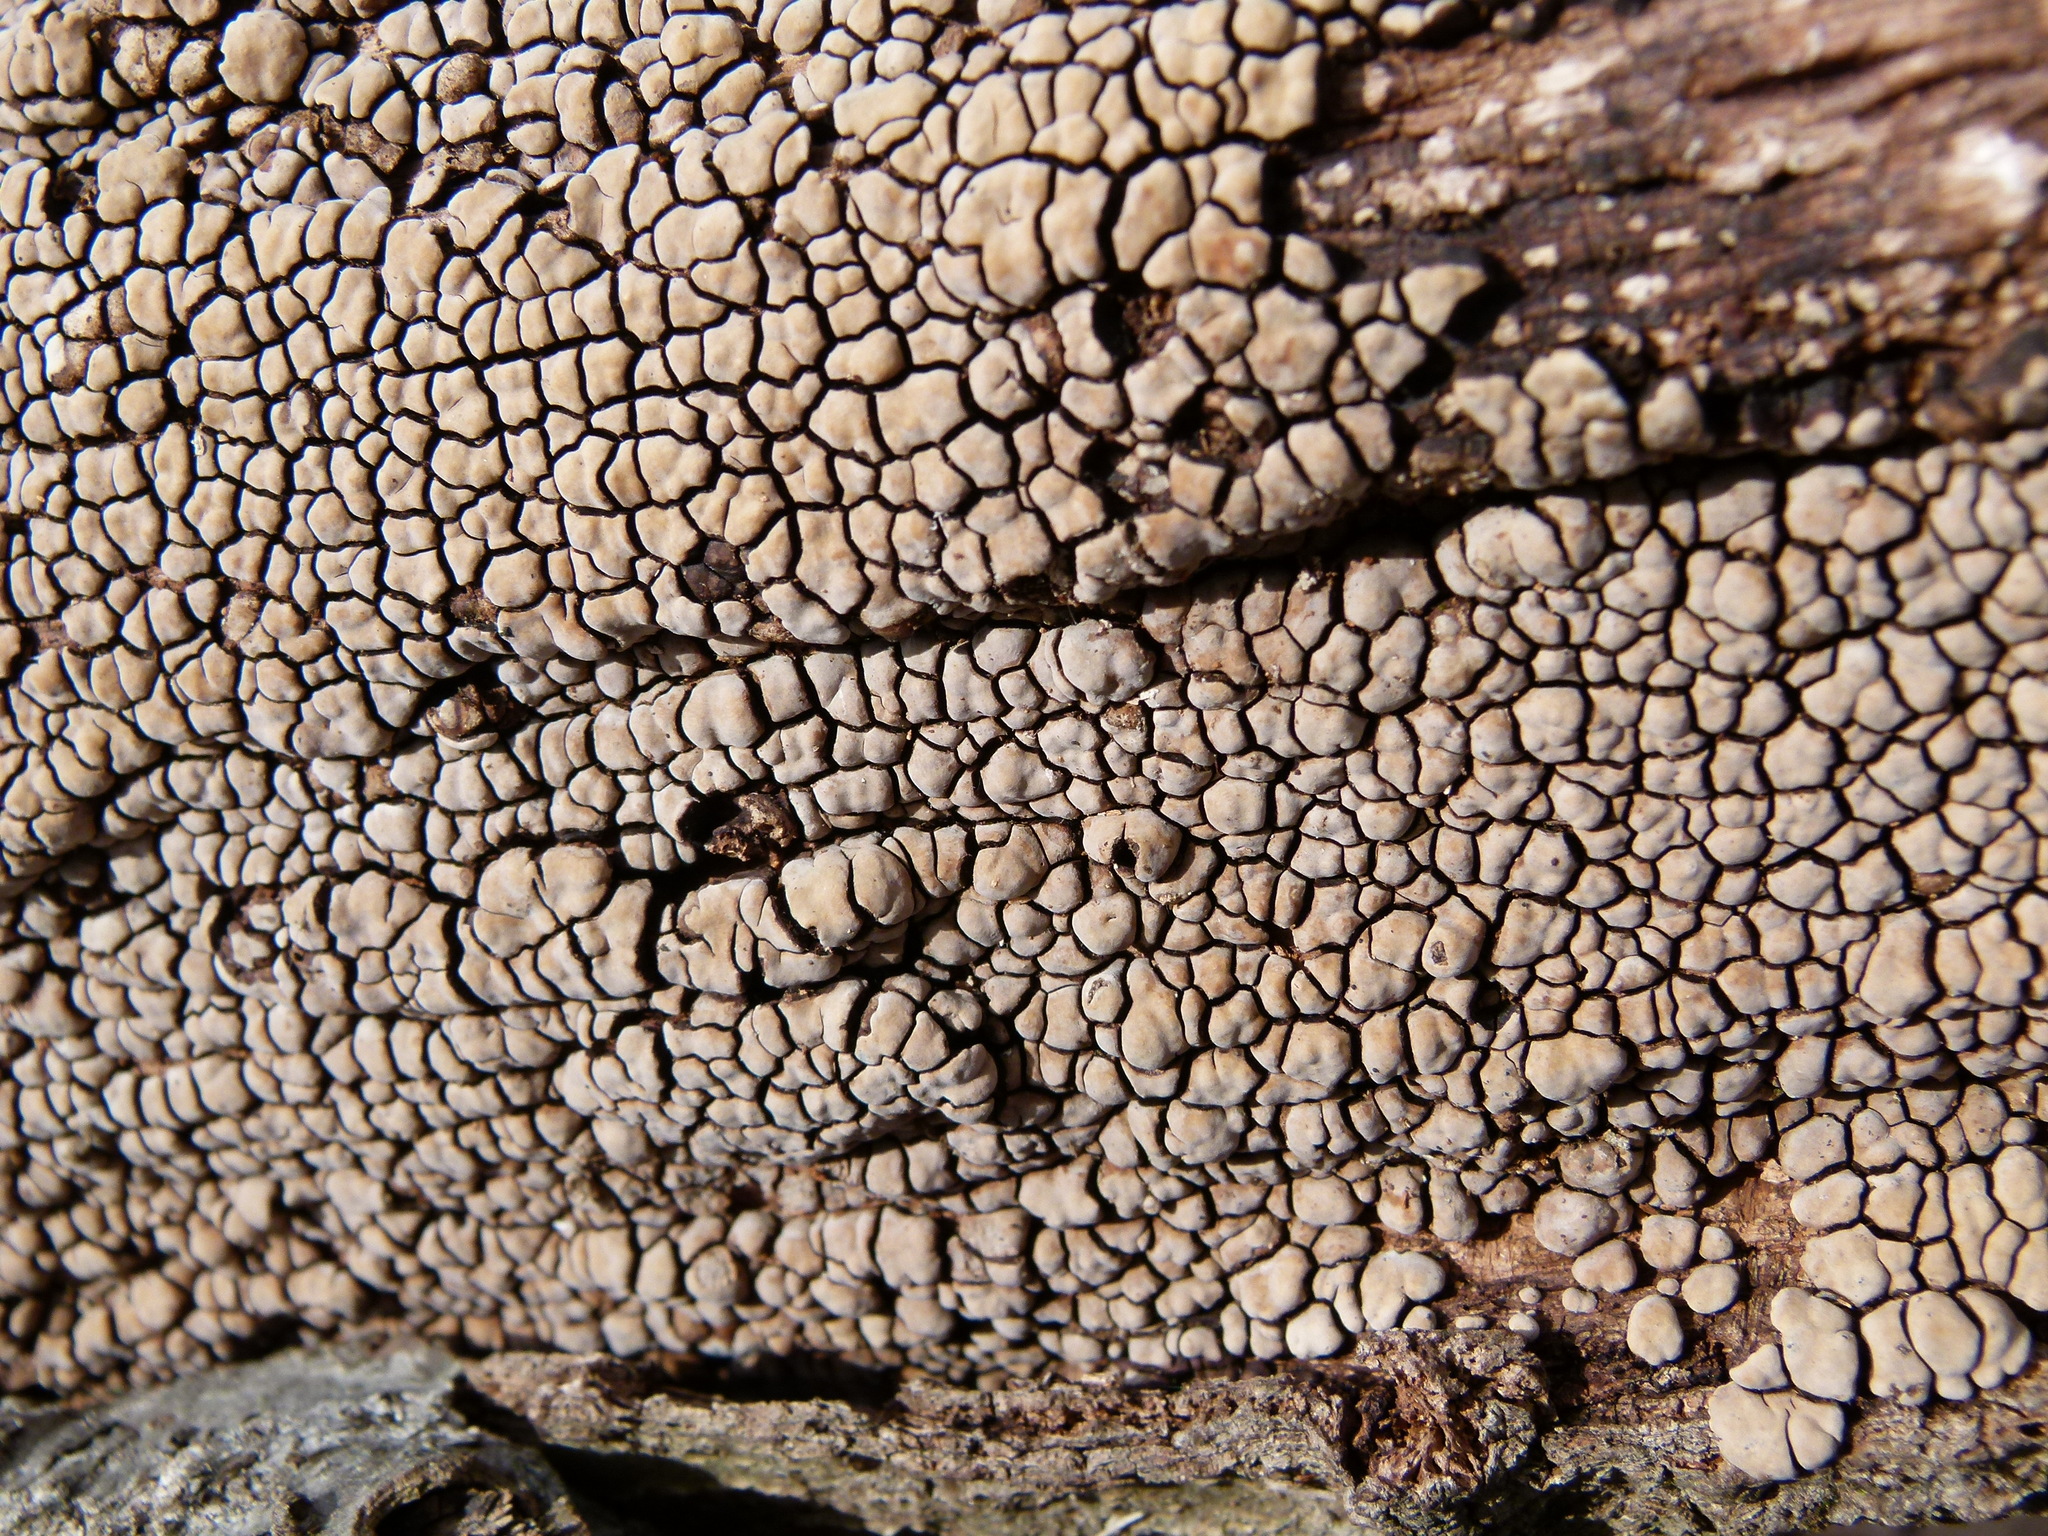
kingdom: Fungi
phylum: Basidiomycota
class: Agaricomycetes
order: Russulales
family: Stereaceae
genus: Xylobolus
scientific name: Xylobolus frustulatus
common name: Ceramic parchment
